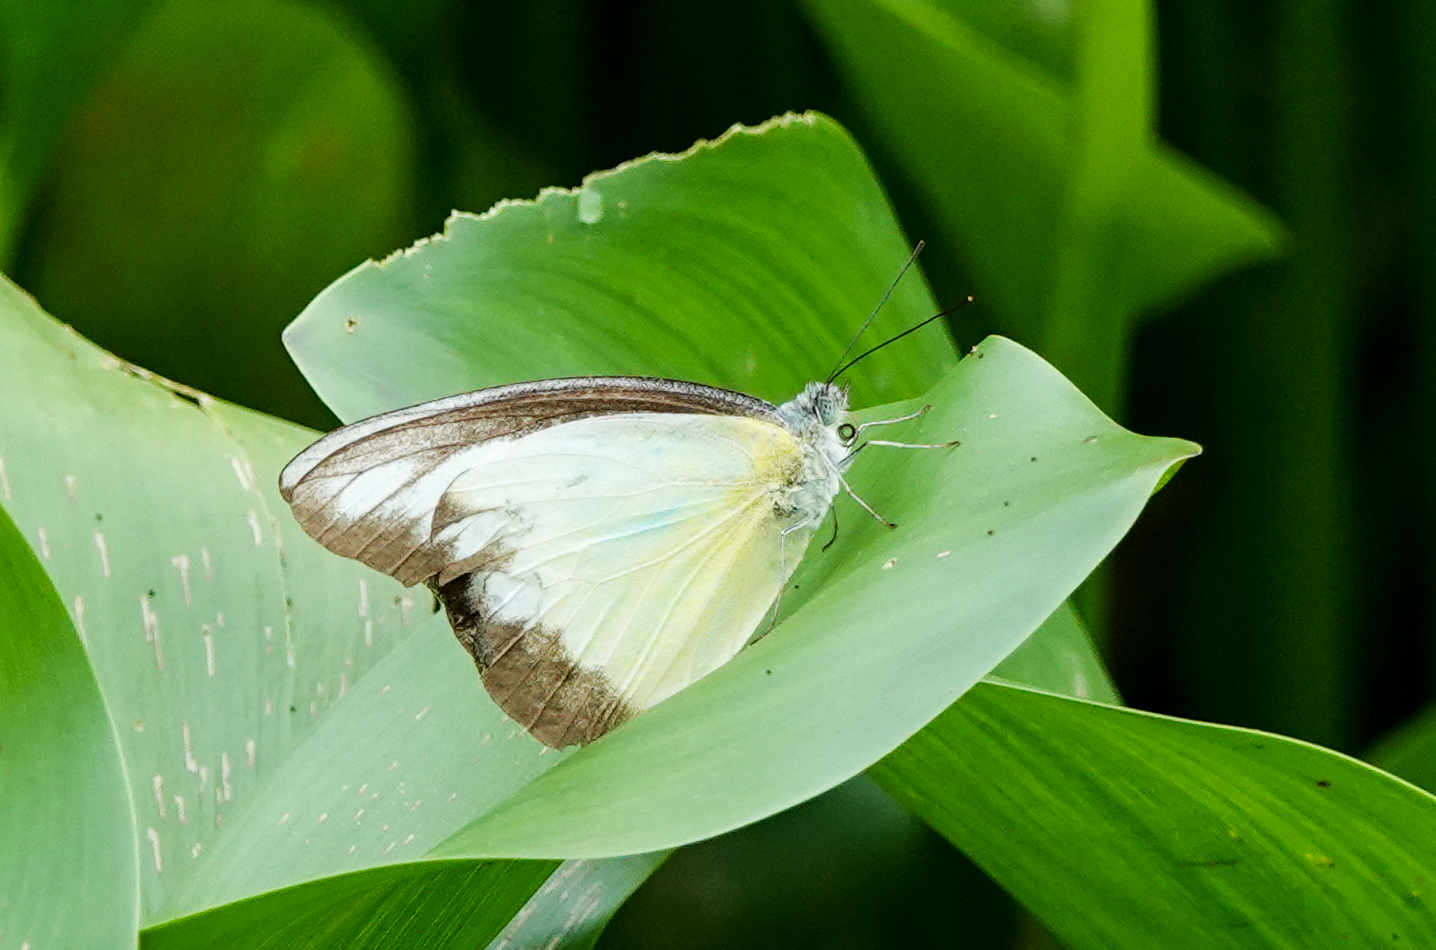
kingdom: Animalia
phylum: Arthropoda
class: Insecta
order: Lepidoptera
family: Pieridae
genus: Appias
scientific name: Appias lyncida
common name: Chocolate albatross
